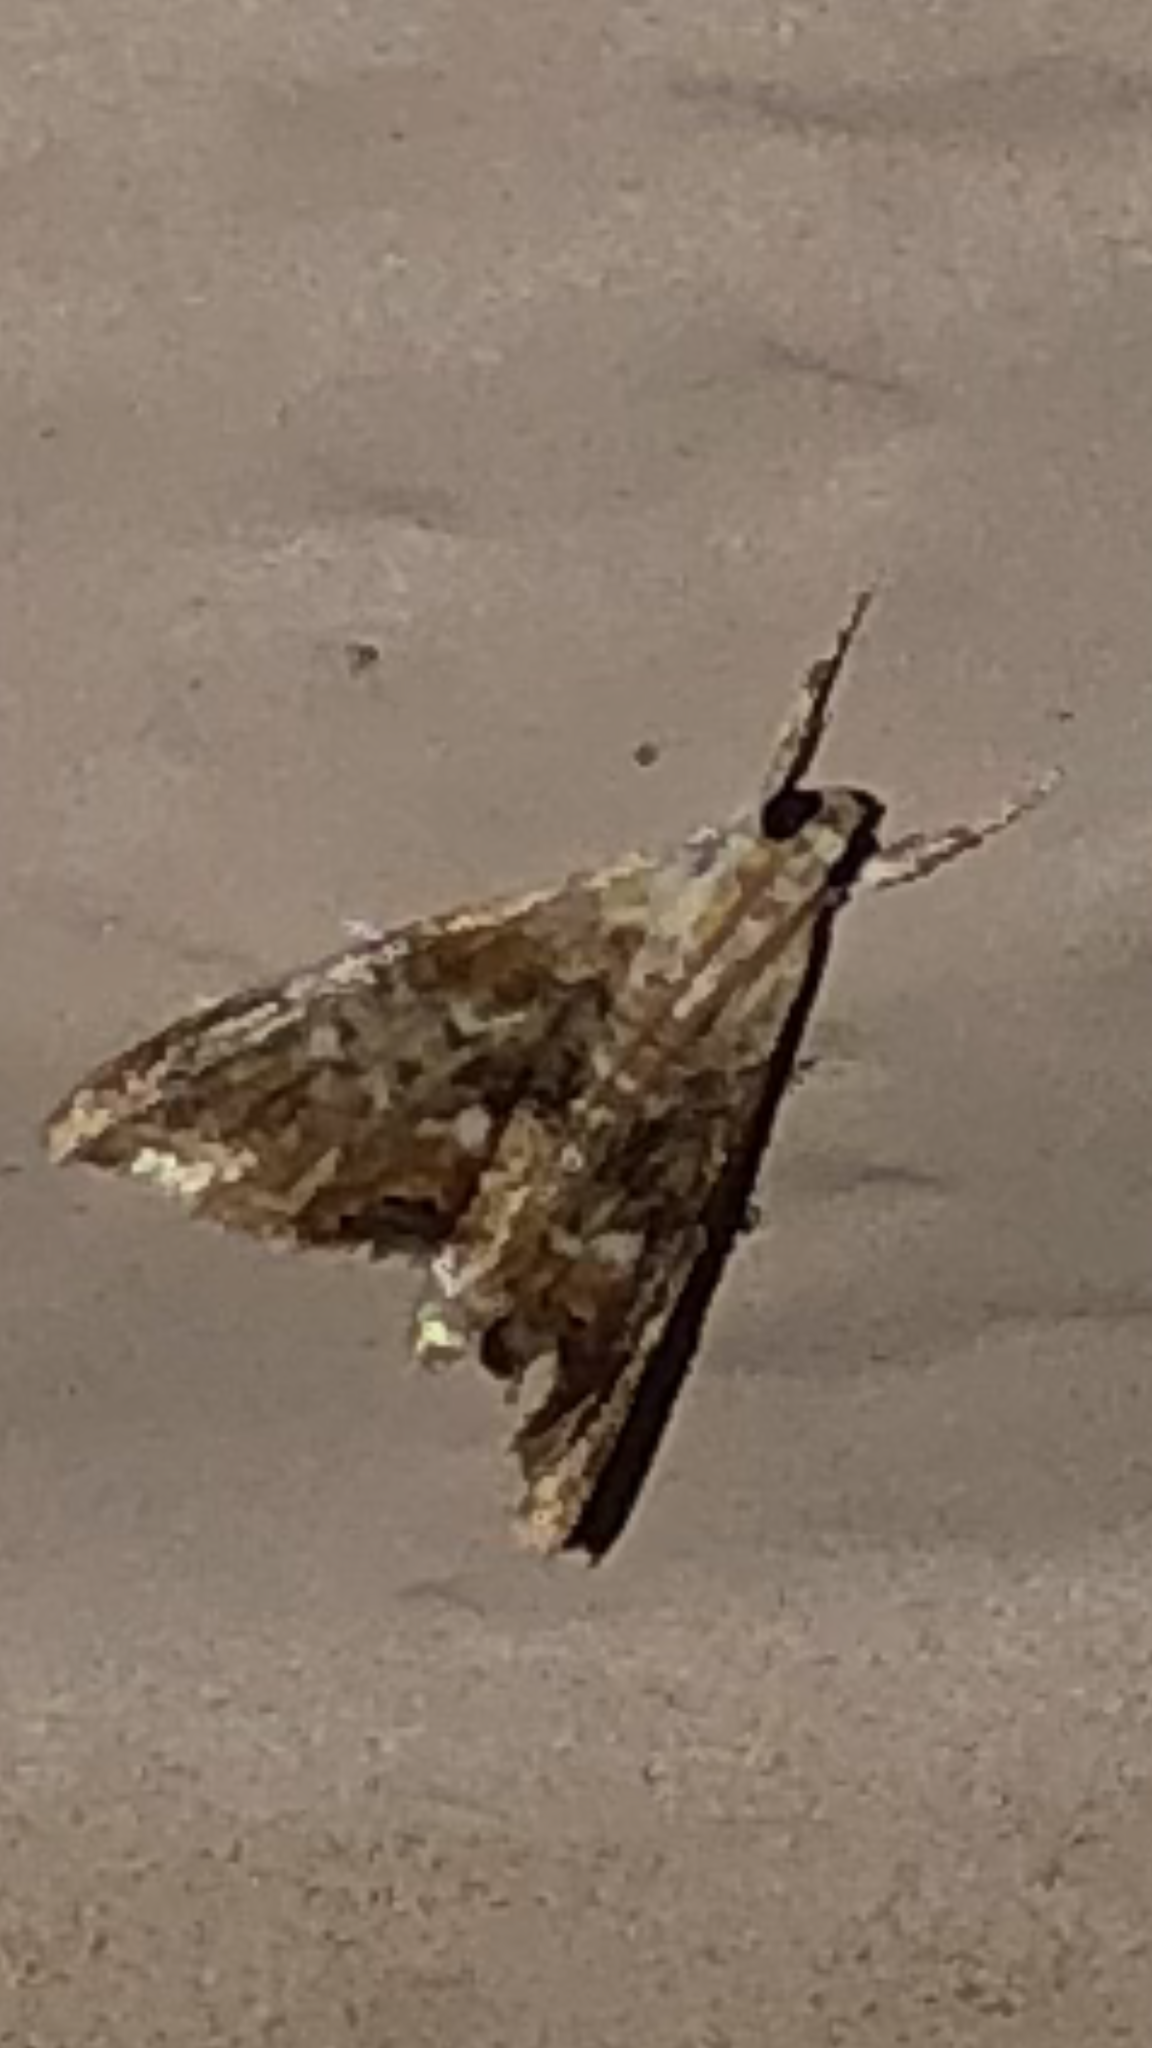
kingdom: Animalia
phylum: Arthropoda
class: Insecta
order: Lepidoptera
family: Crambidae
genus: Dicymolomia
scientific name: Dicymolomia julianalis
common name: Julia's dicymolomia moth
